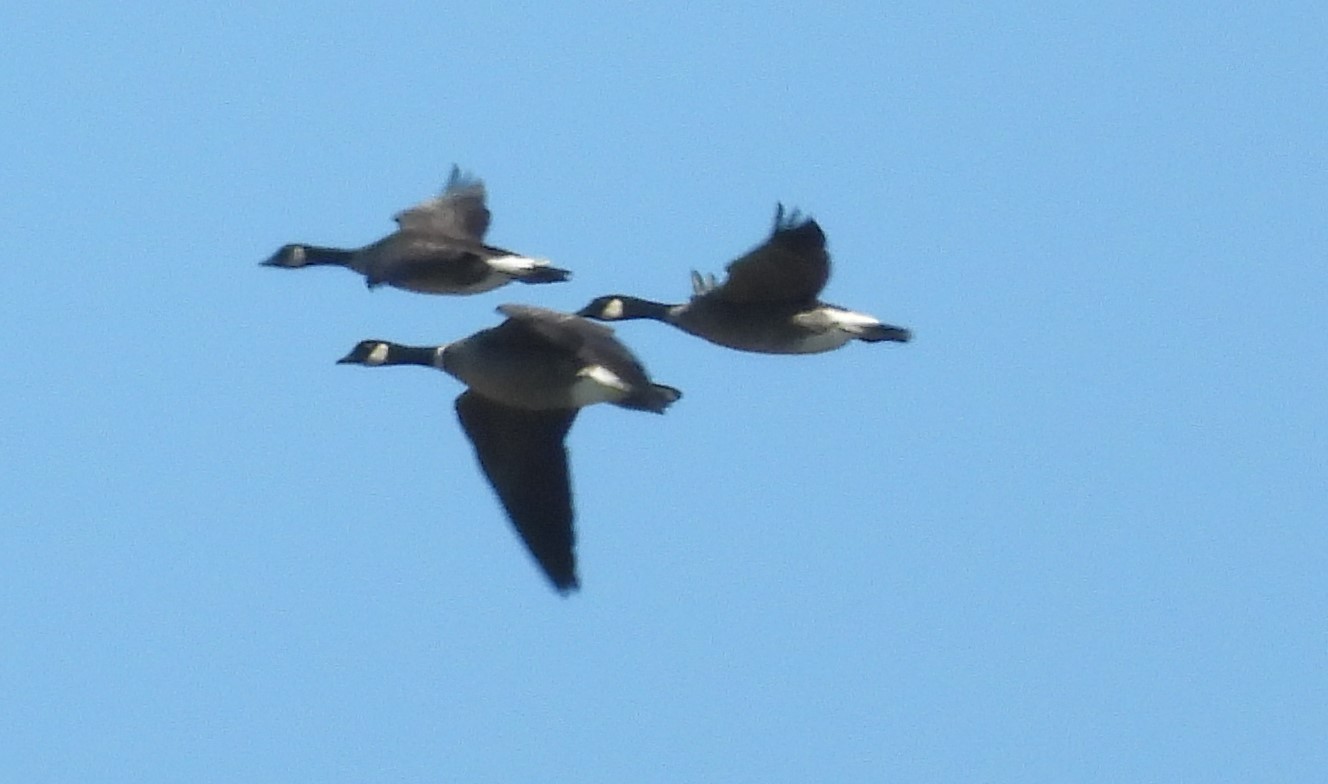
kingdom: Animalia
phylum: Chordata
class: Aves
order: Anseriformes
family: Anatidae
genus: Branta
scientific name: Branta hutchinsii
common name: Cackling goose
